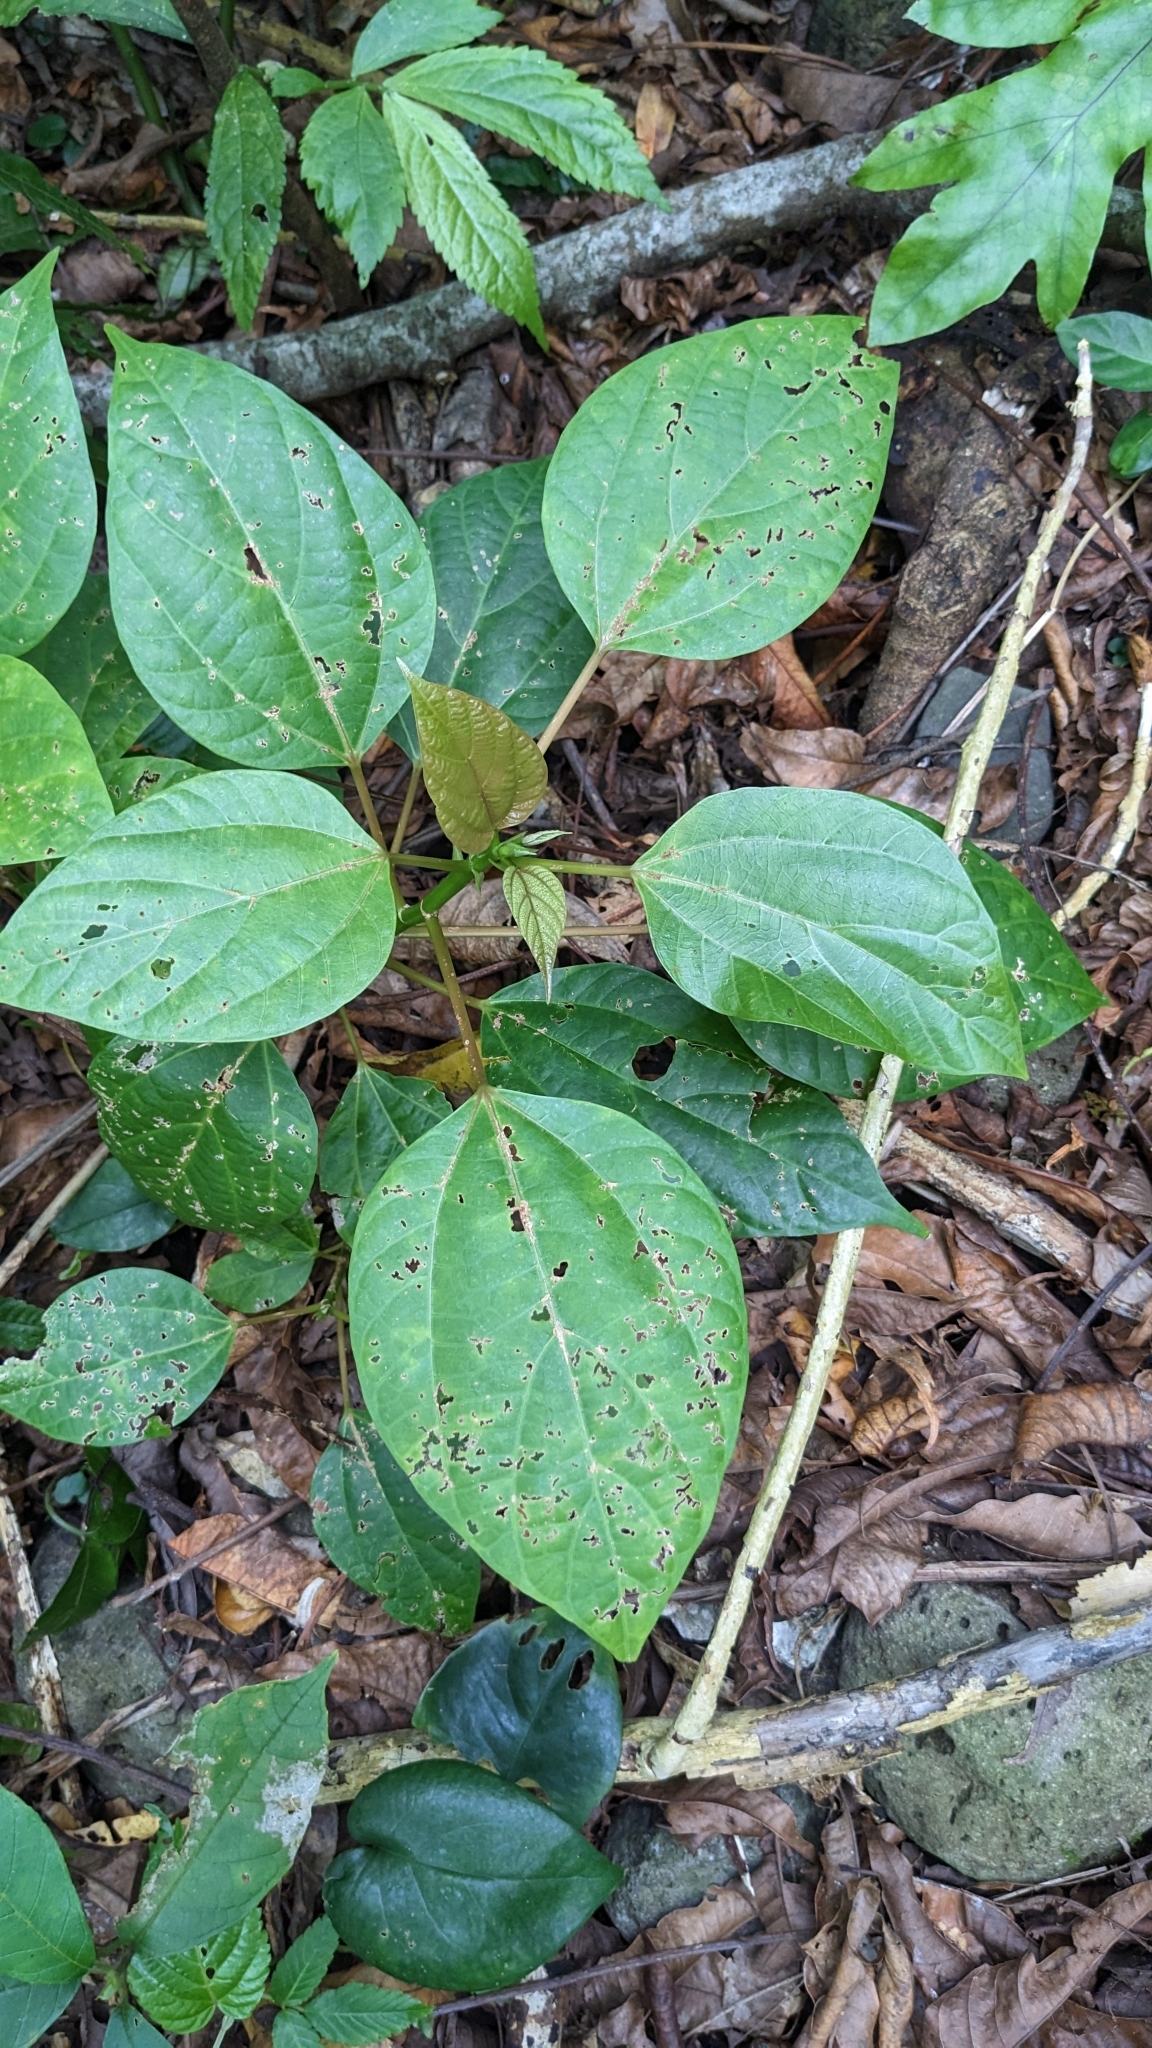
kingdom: Plantae
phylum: Tracheophyta
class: Magnoliopsida
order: Rosales
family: Urticaceae
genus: Oreocnide
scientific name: Oreocnide trinervis
